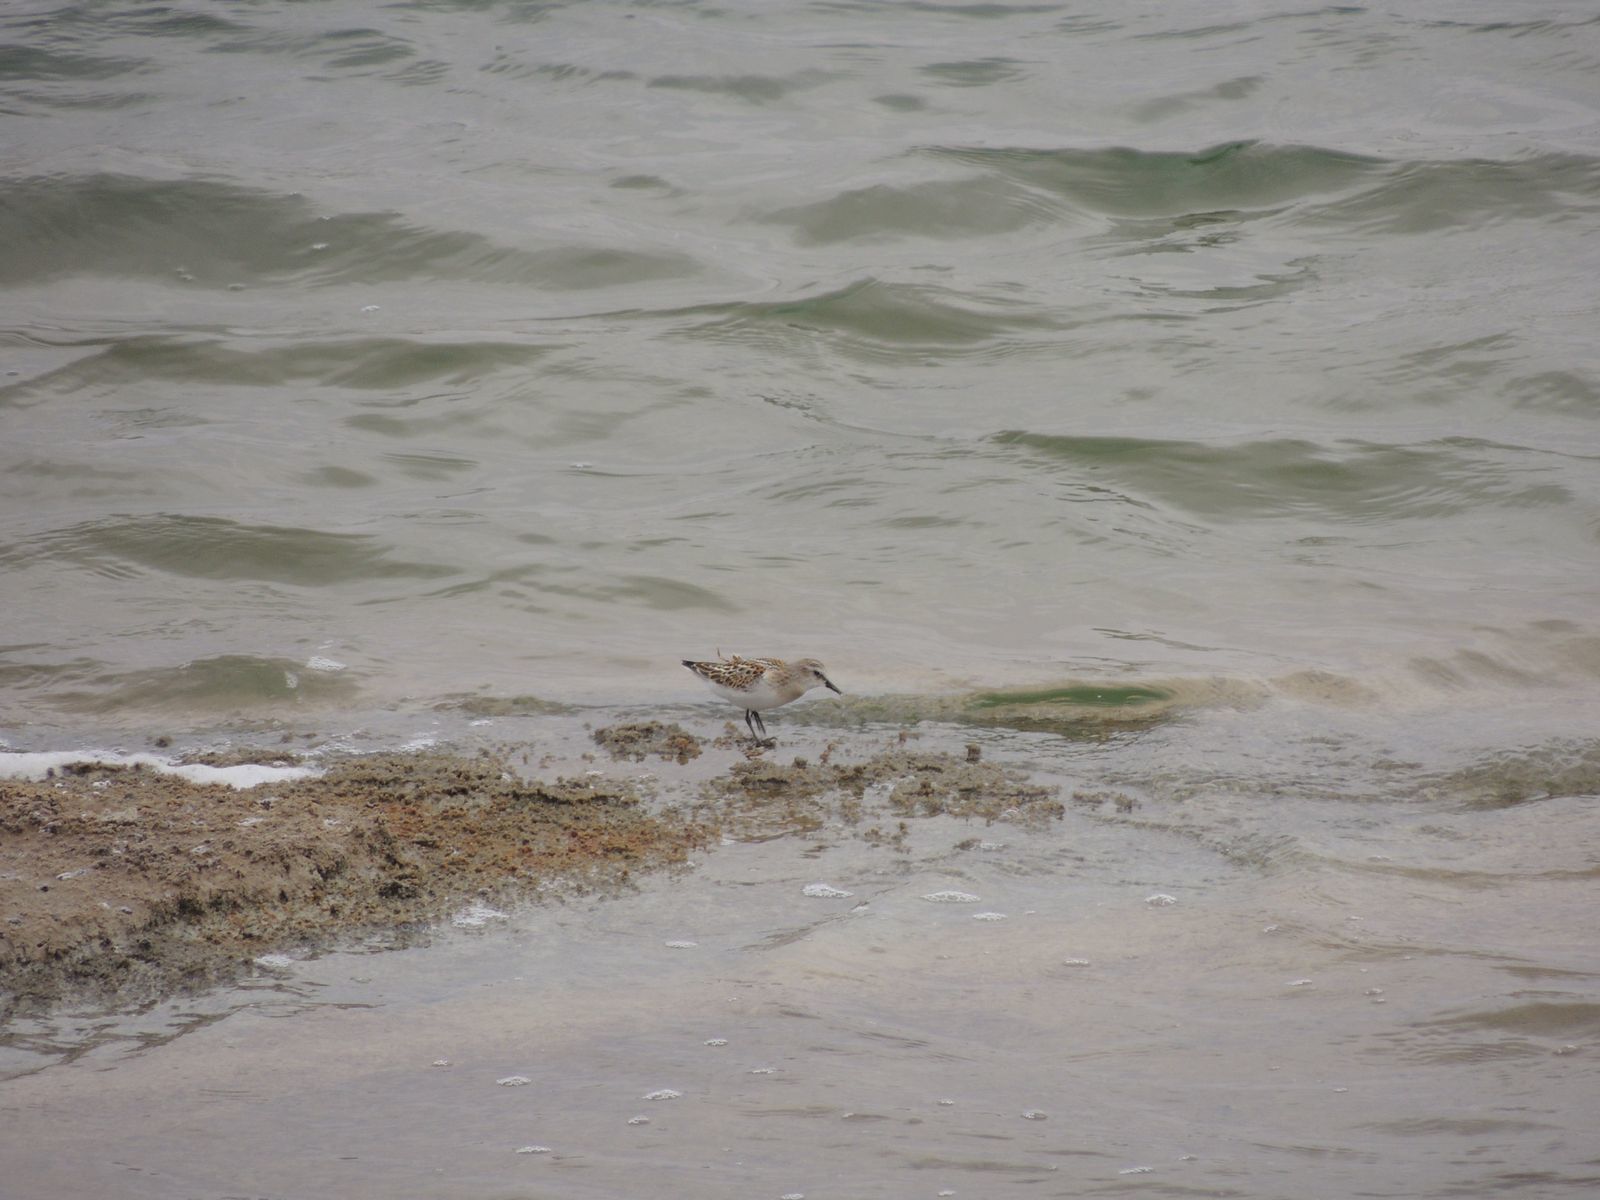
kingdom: Animalia
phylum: Chordata
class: Aves
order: Charadriiformes
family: Scolopacidae
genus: Calidris
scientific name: Calidris minuta
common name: Little stint
